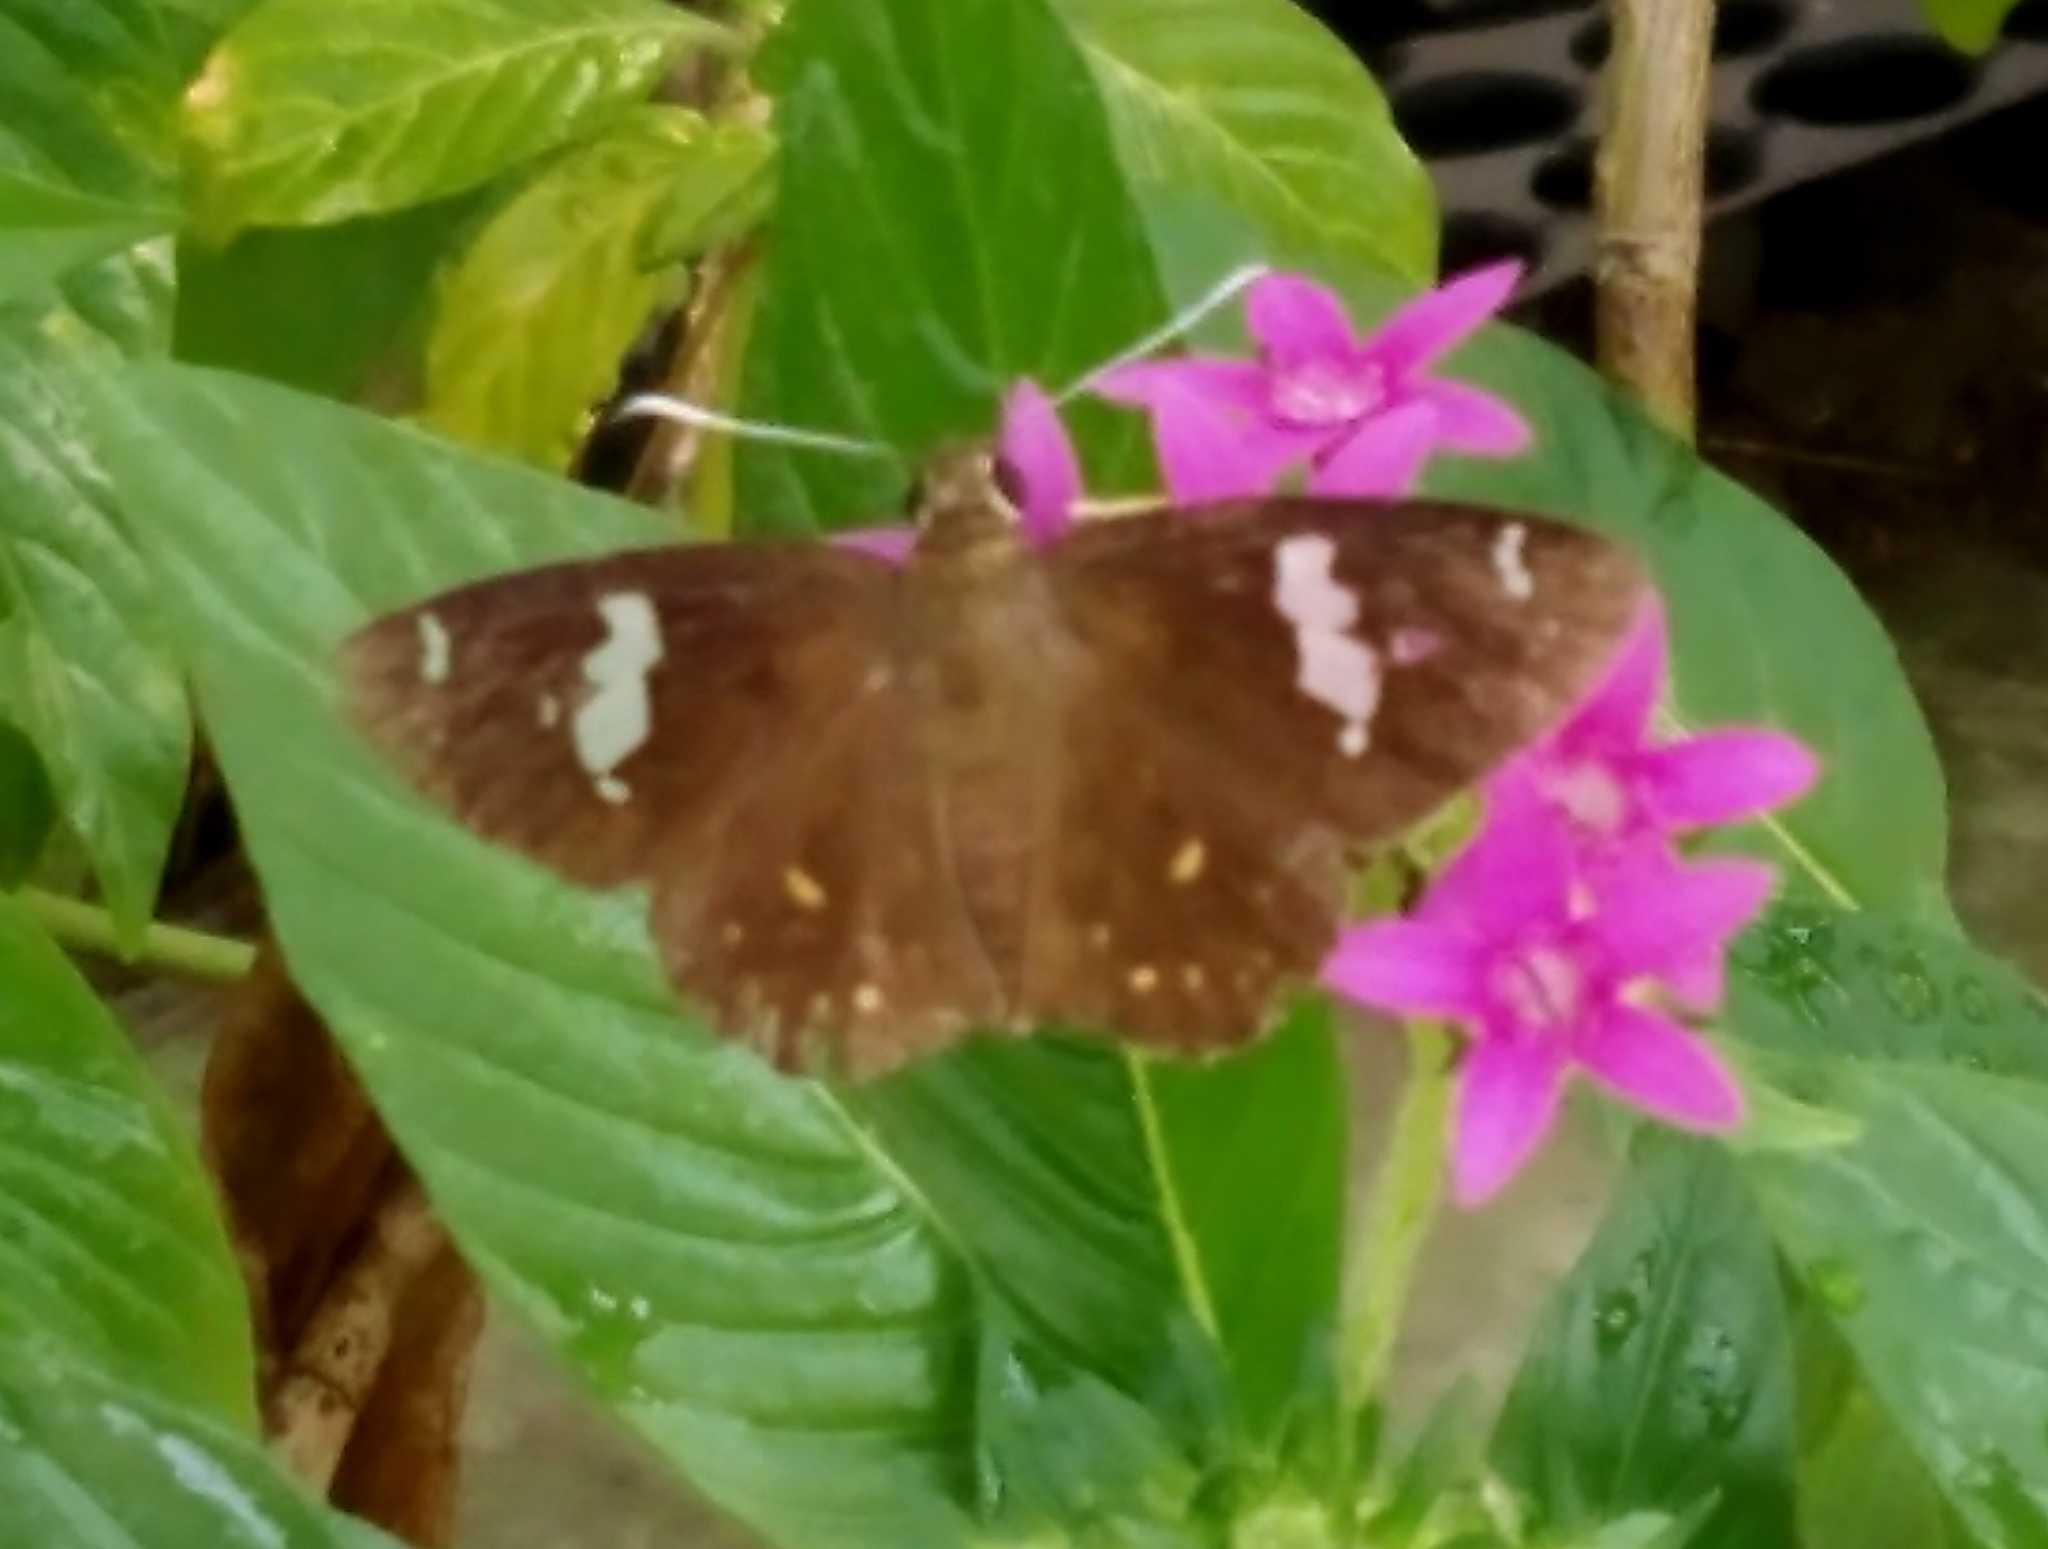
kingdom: Animalia
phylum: Arthropoda
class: Insecta
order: Lepidoptera
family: Hesperiidae
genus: Celaenorrhinus
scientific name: Celaenorrhinus putra
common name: Restricted spotted flat
